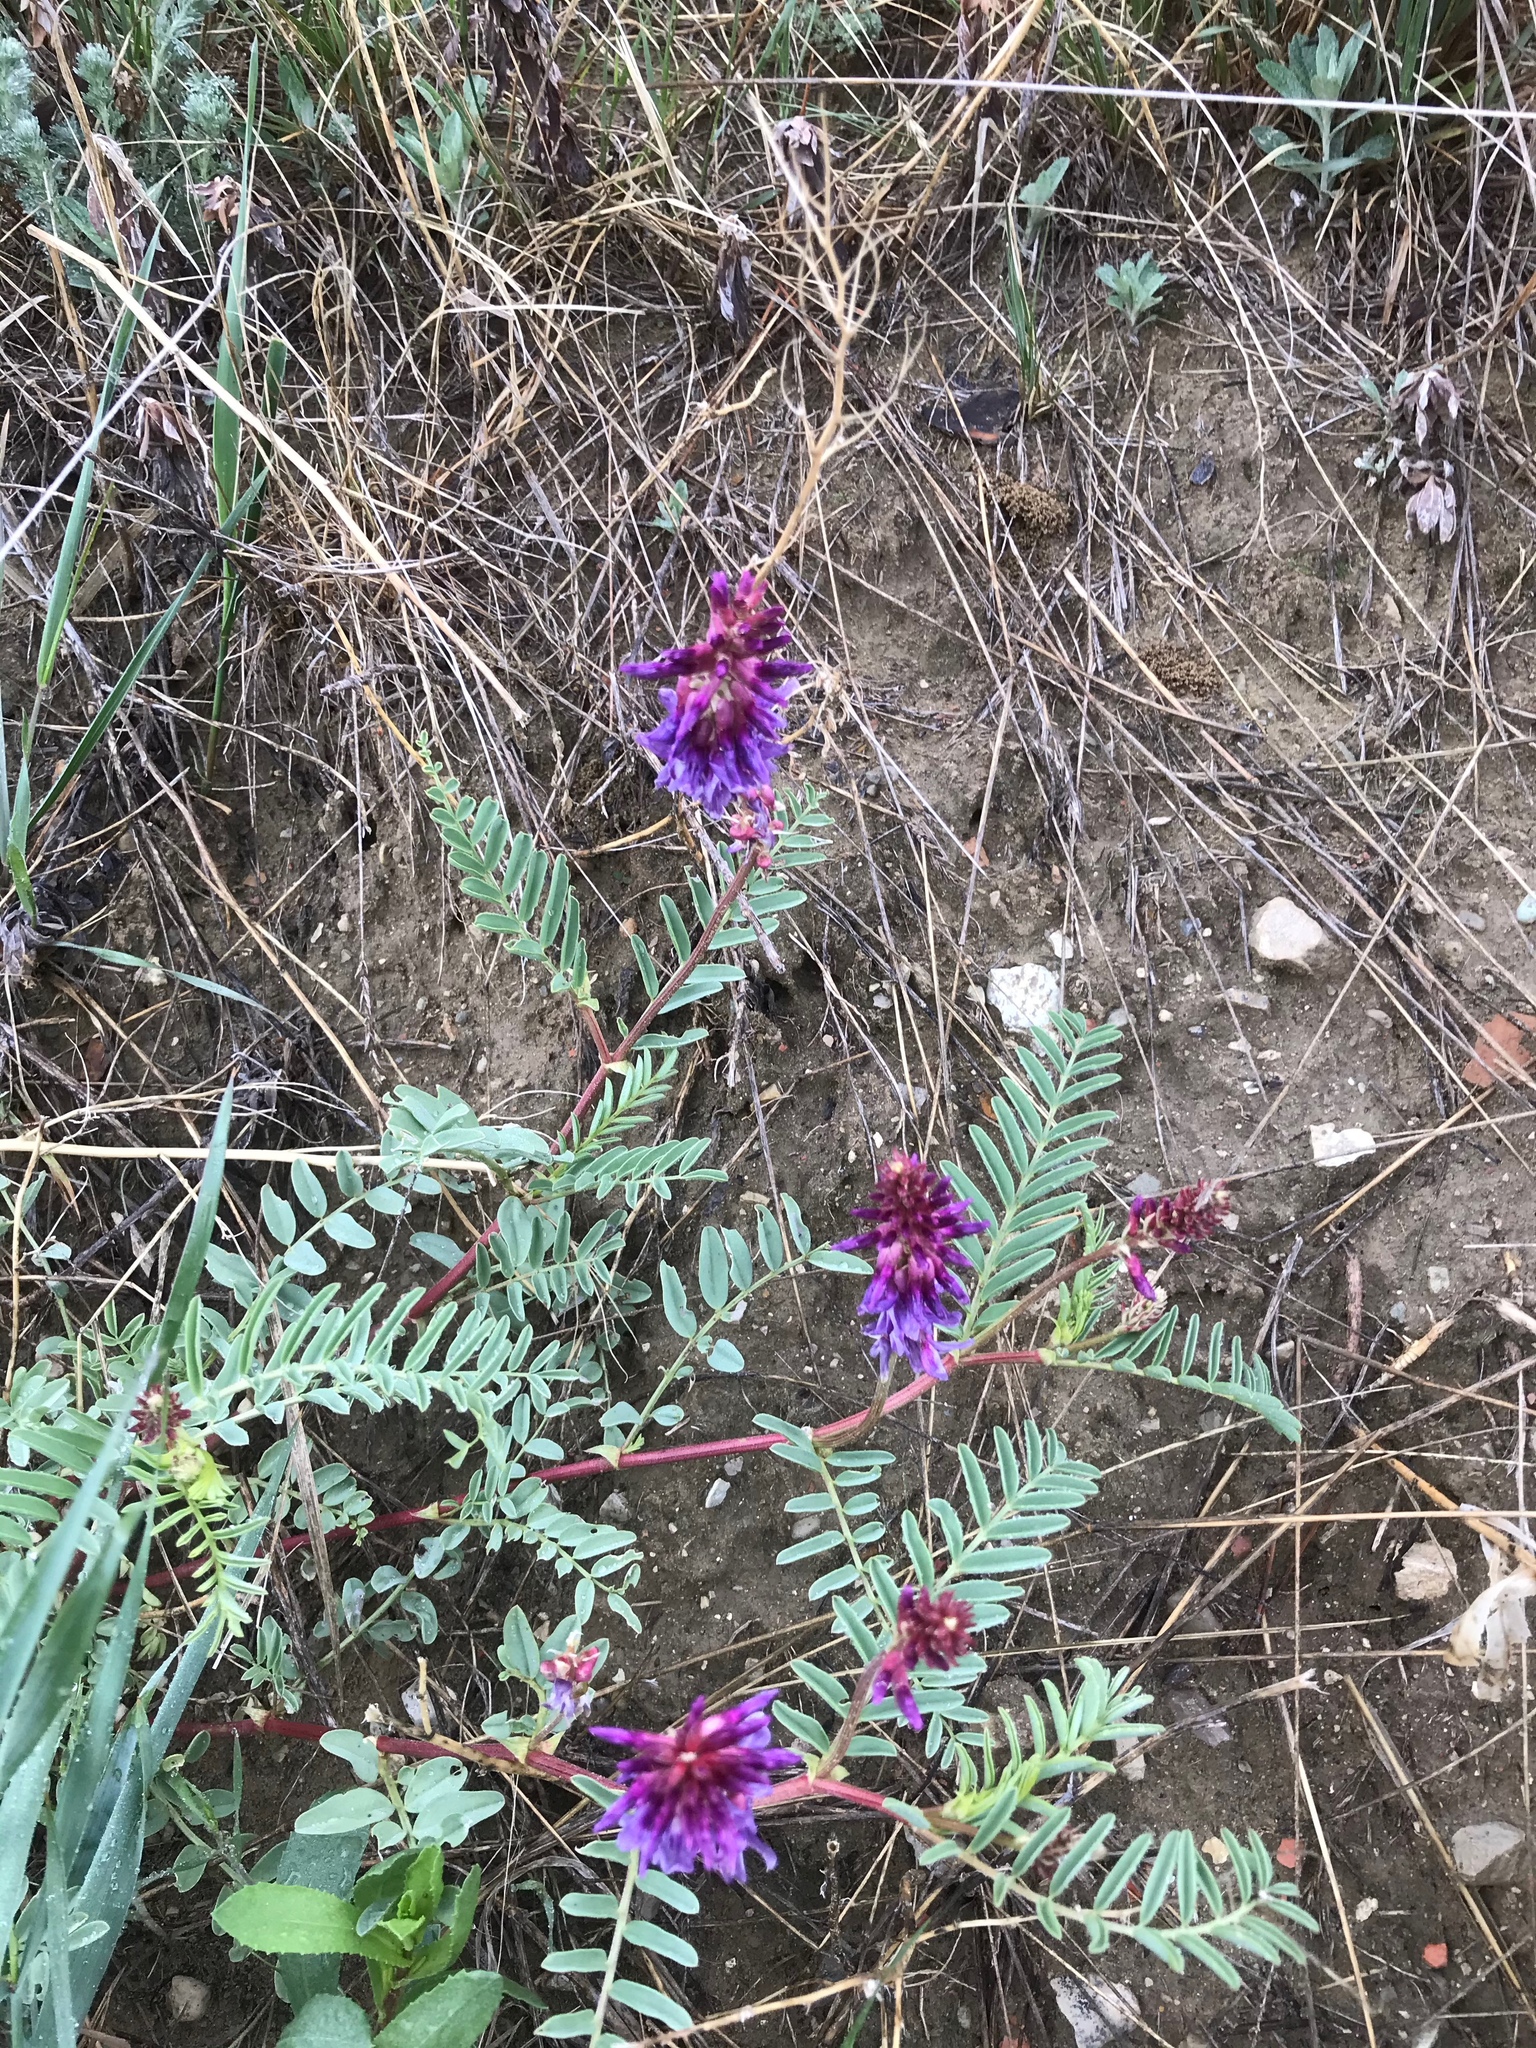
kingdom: Plantae
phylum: Tracheophyta
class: Magnoliopsida
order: Fabales
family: Fabaceae
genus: Astragalus
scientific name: Astragalus bisulcatus
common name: Two-groove milk-vetch
